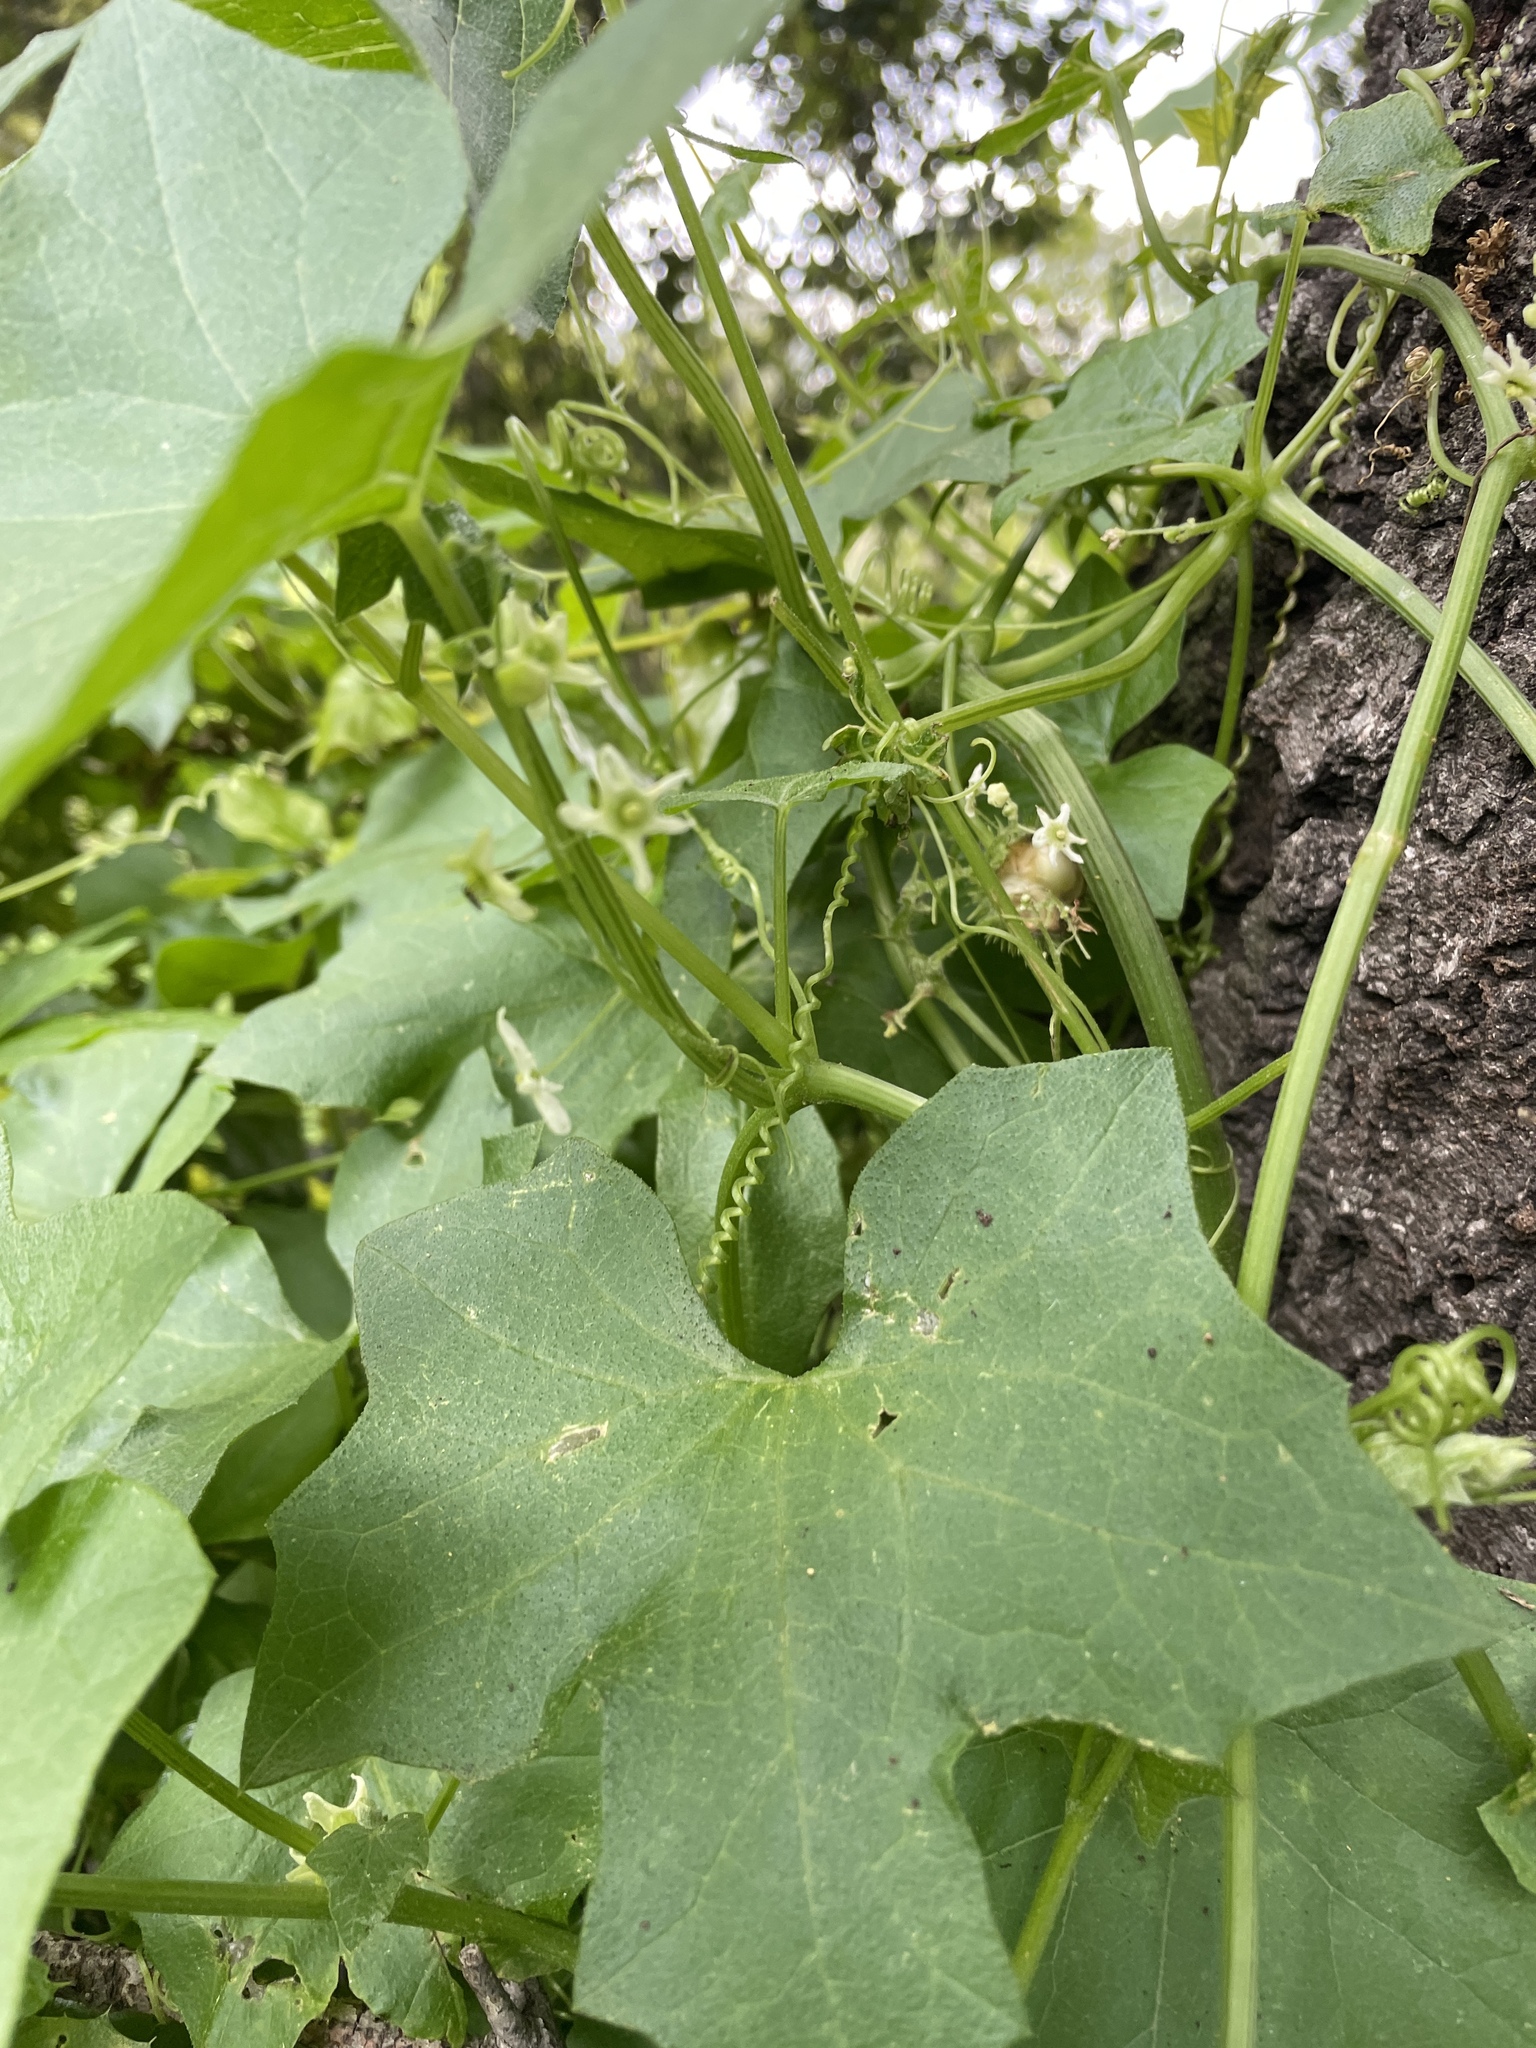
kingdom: Plantae
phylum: Tracheophyta
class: Magnoliopsida
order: Cucurbitales
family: Cucurbitaceae
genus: Marah
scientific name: Marah fabacea
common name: California manroot
